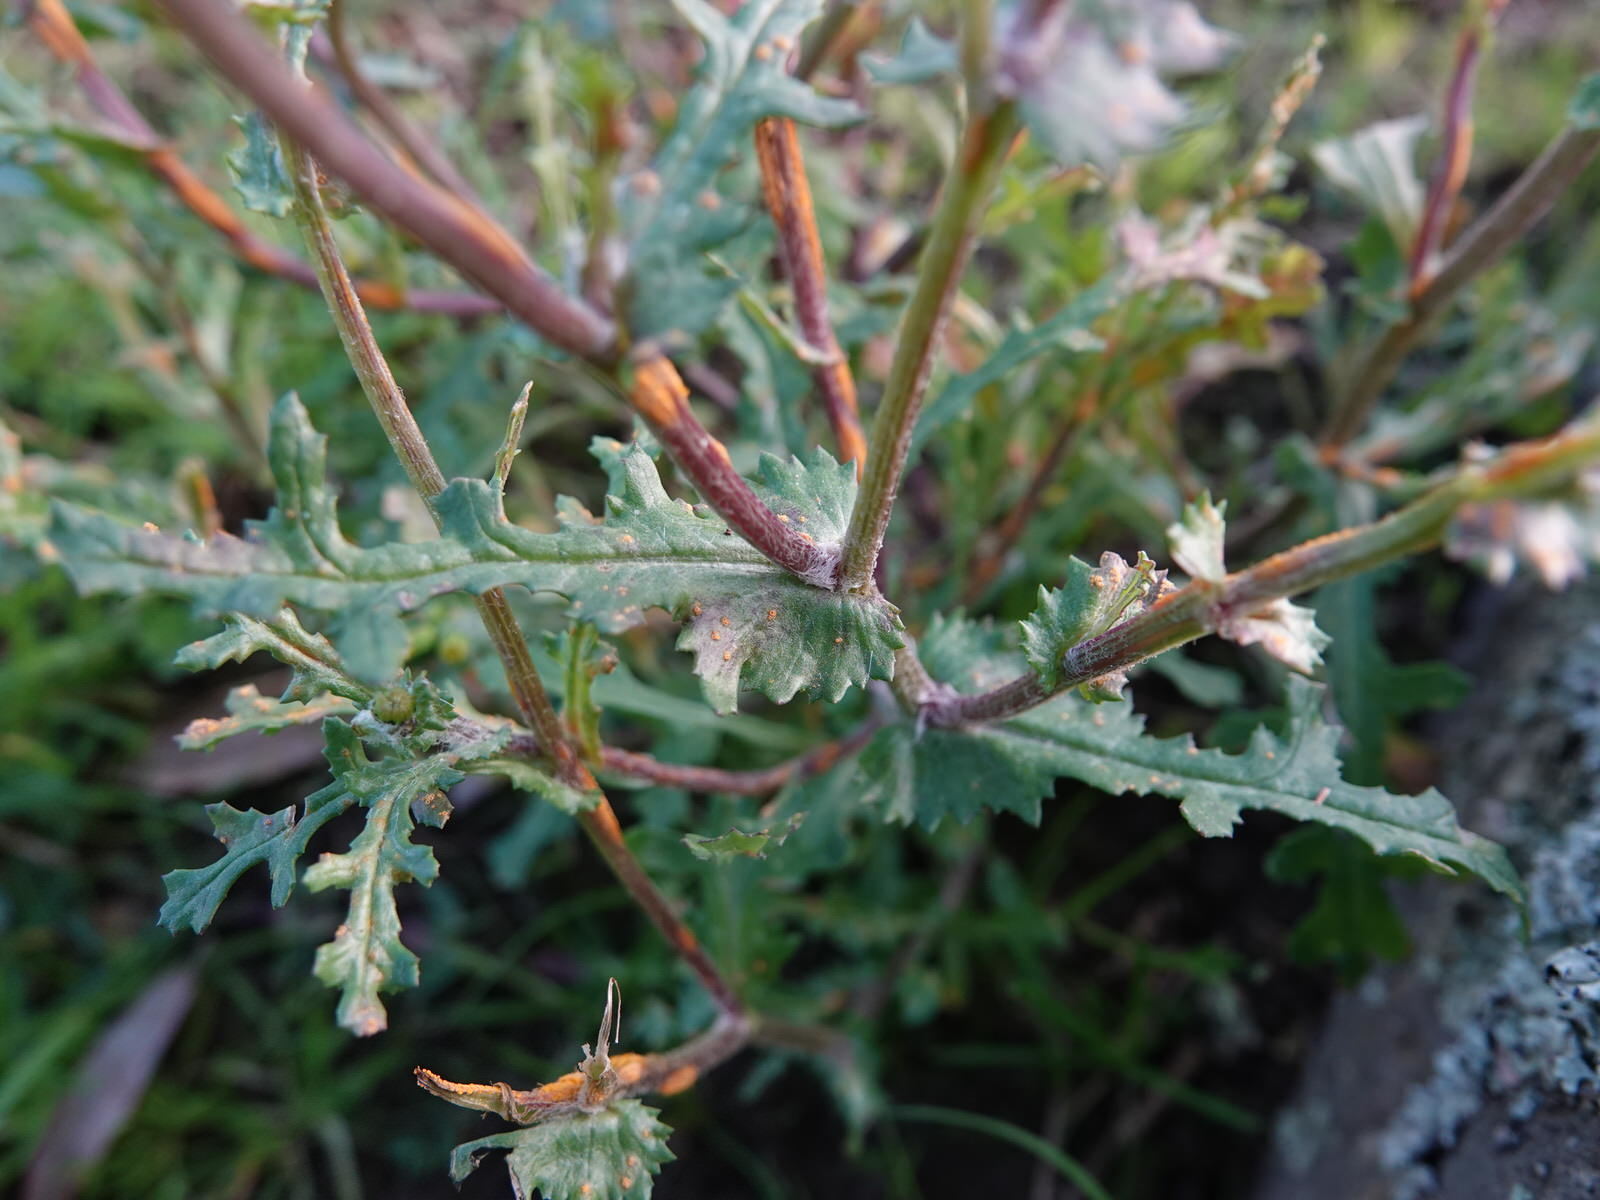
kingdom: Fungi
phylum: Basidiomycota
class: Pucciniomycetes
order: Pucciniales
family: Pucciniaceae
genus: Puccinia
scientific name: Puccinia lagenophorae
